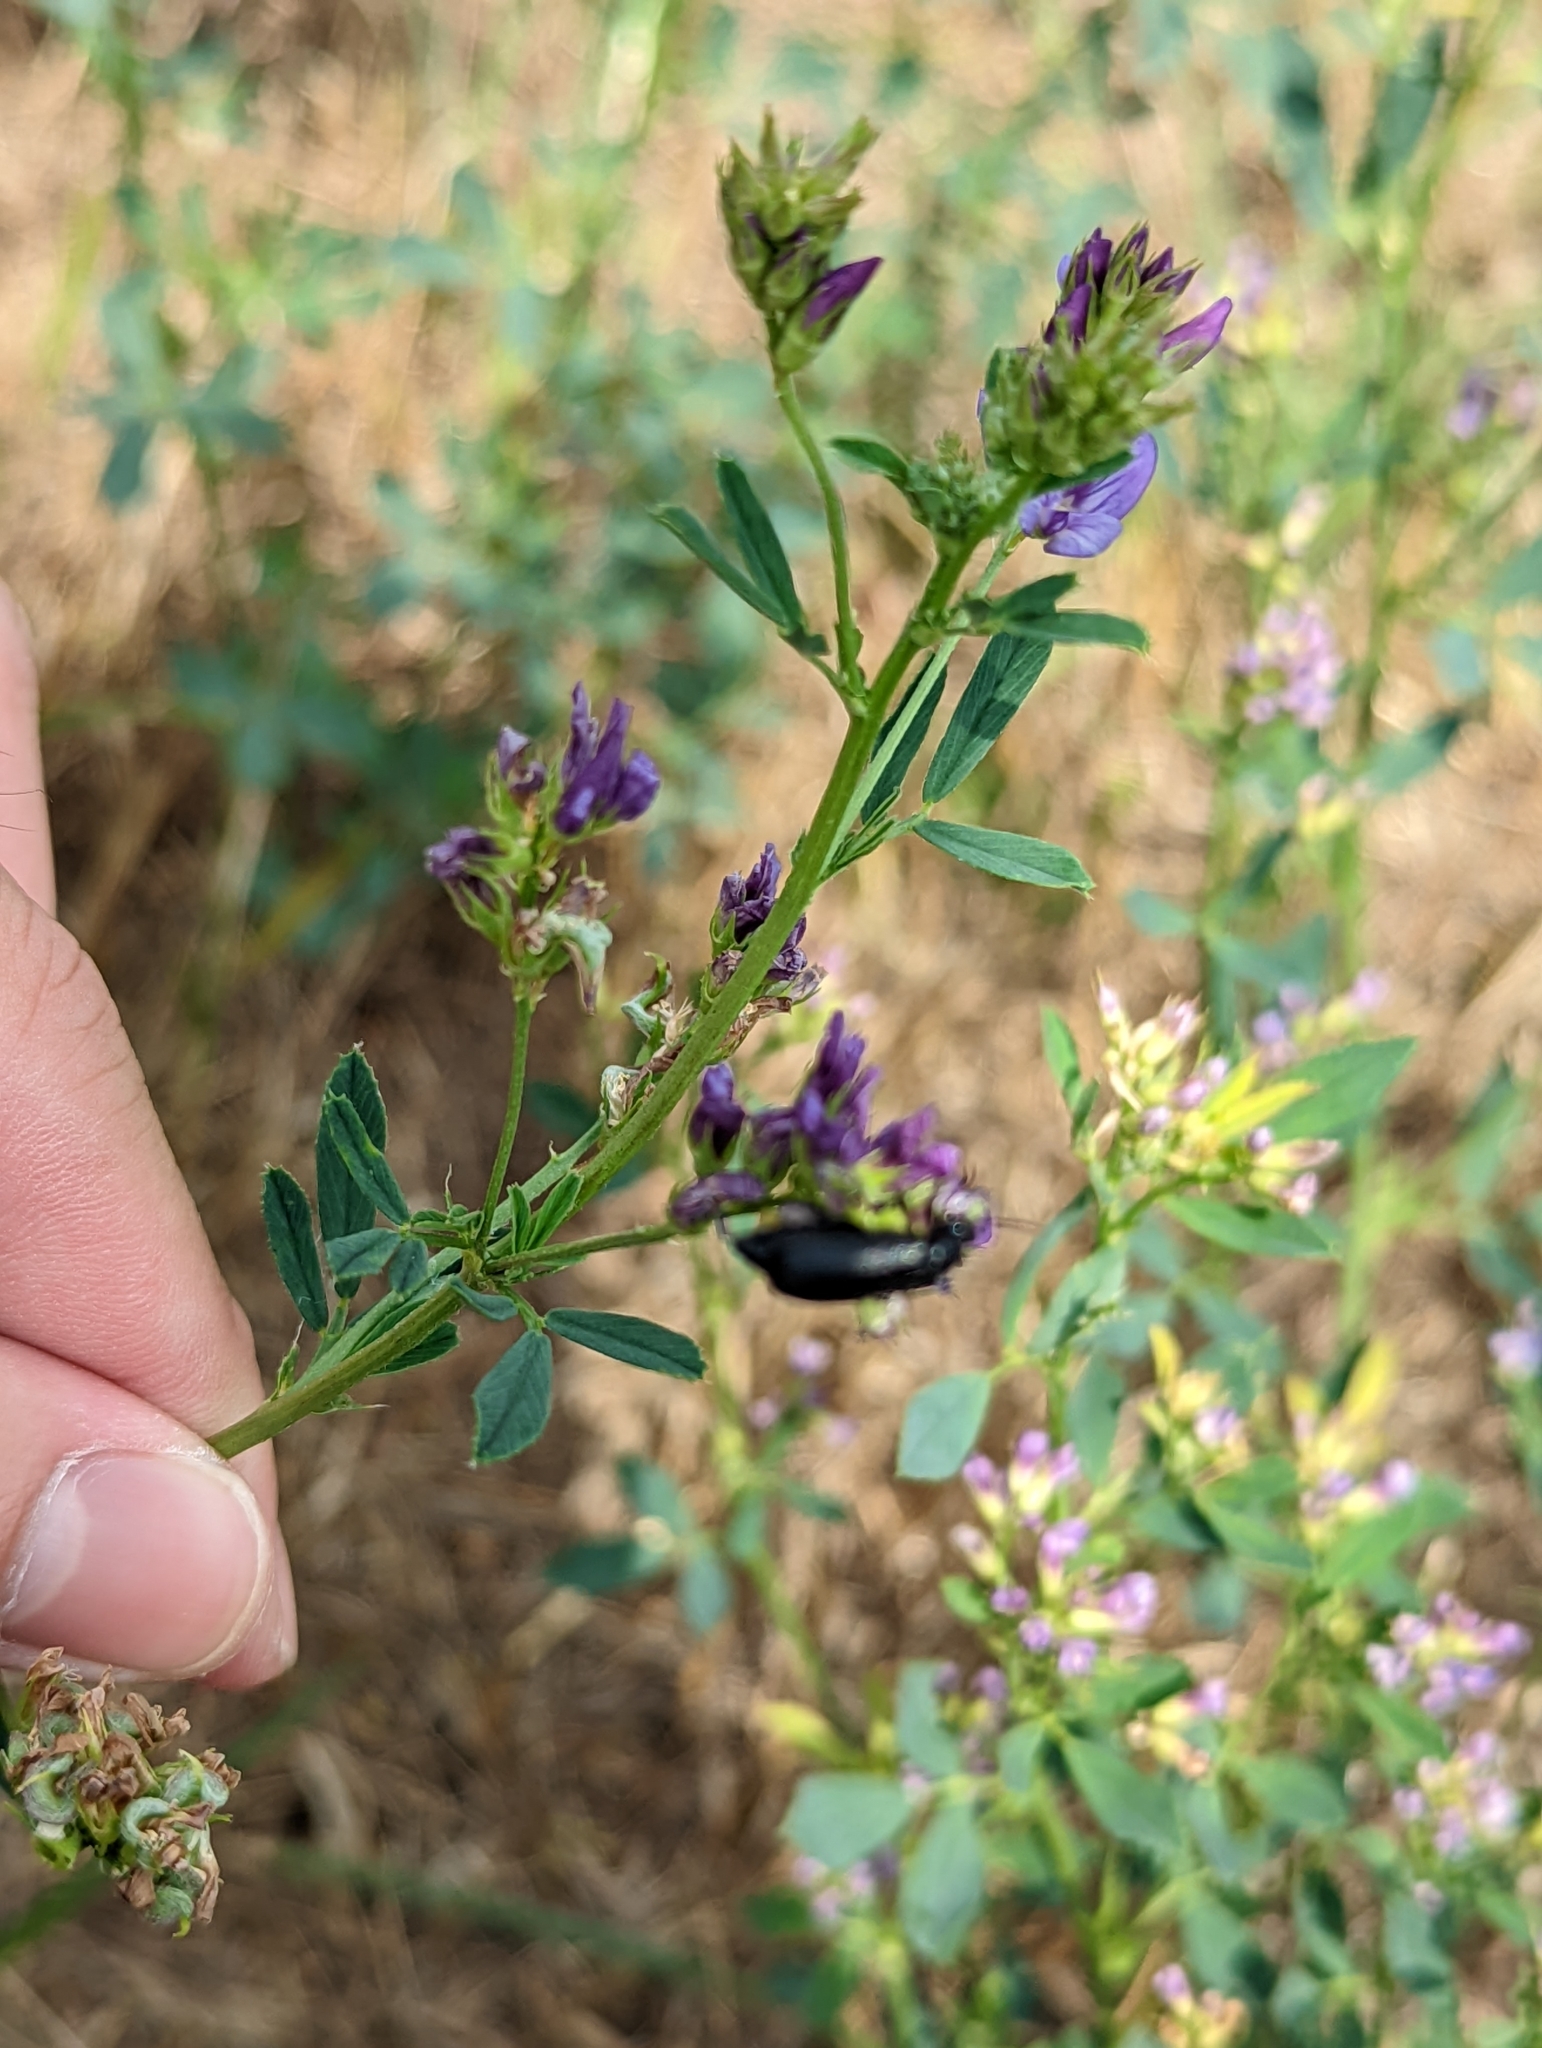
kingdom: Animalia
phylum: Arthropoda
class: Insecta
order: Coleoptera
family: Meloidae
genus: Epicauta
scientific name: Epicauta puncticollis
